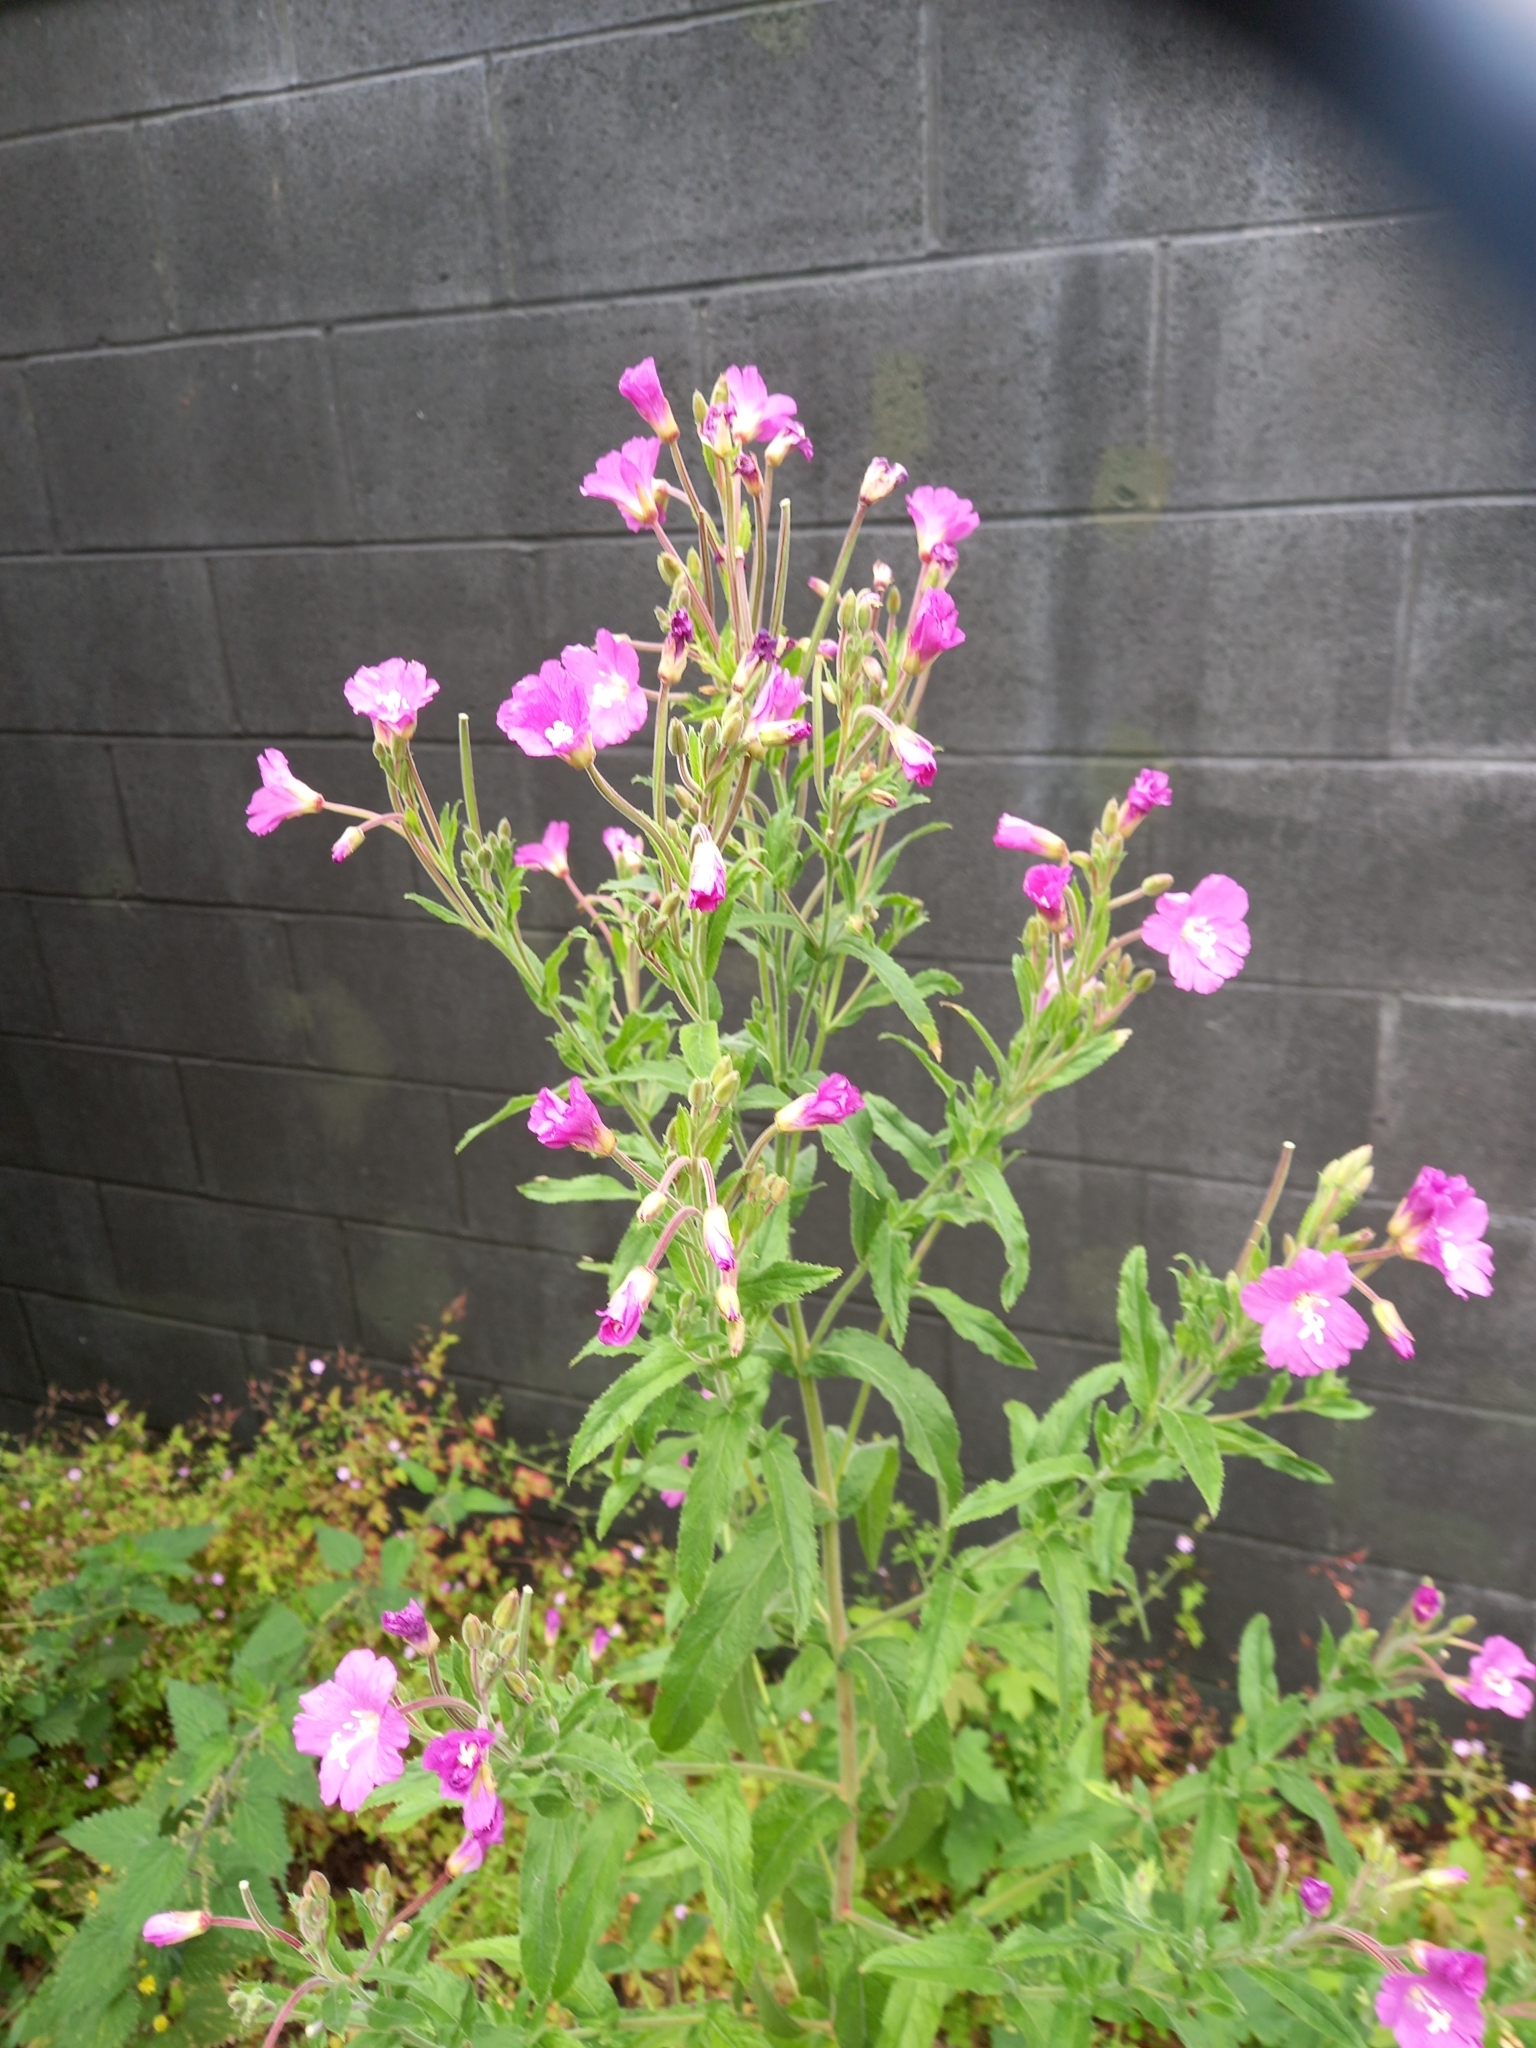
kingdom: Plantae
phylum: Tracheophyta
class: Magnoliopsida
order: Myrtales
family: Onagraceae
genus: Epilobium
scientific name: Epilobium hirsutum
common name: Great willowherb
